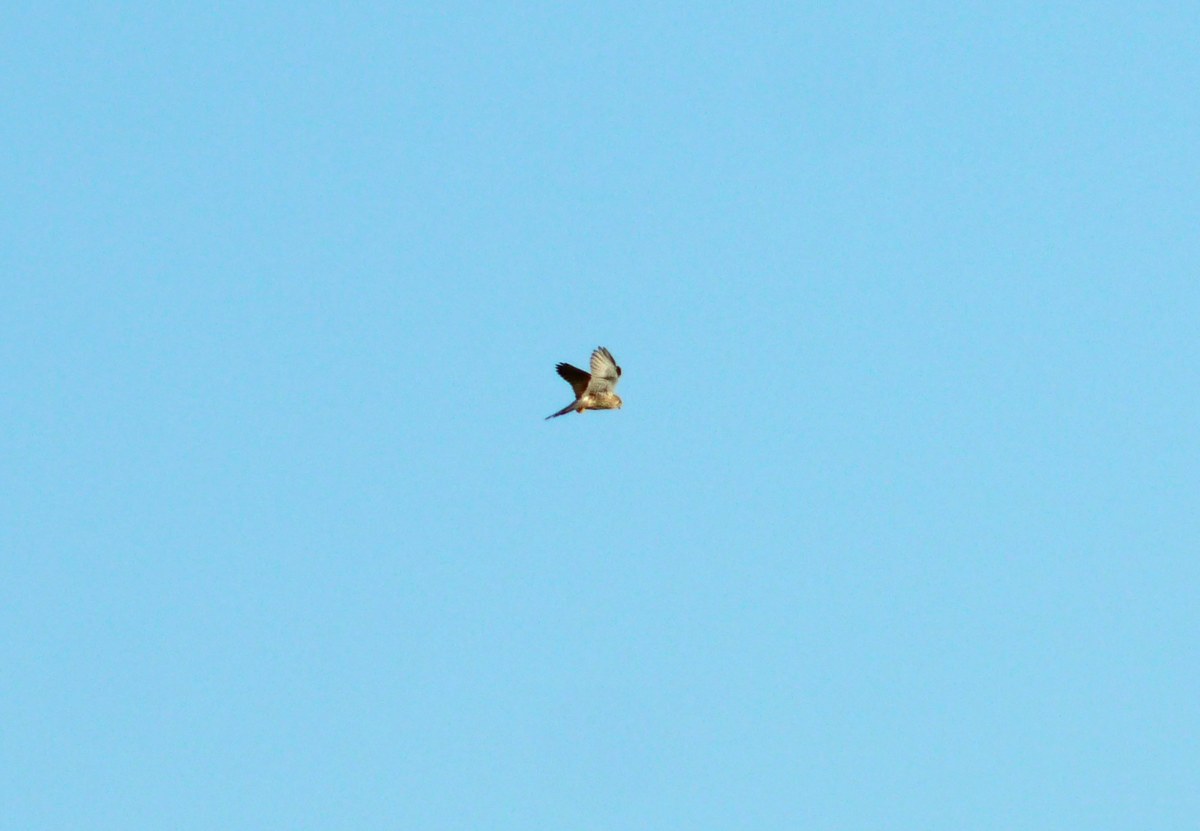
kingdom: Animalia
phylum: Chordata
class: Aves
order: Falconiformes
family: Falconidae
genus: Falco
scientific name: Falco tinnunculus
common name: Common kestrel
